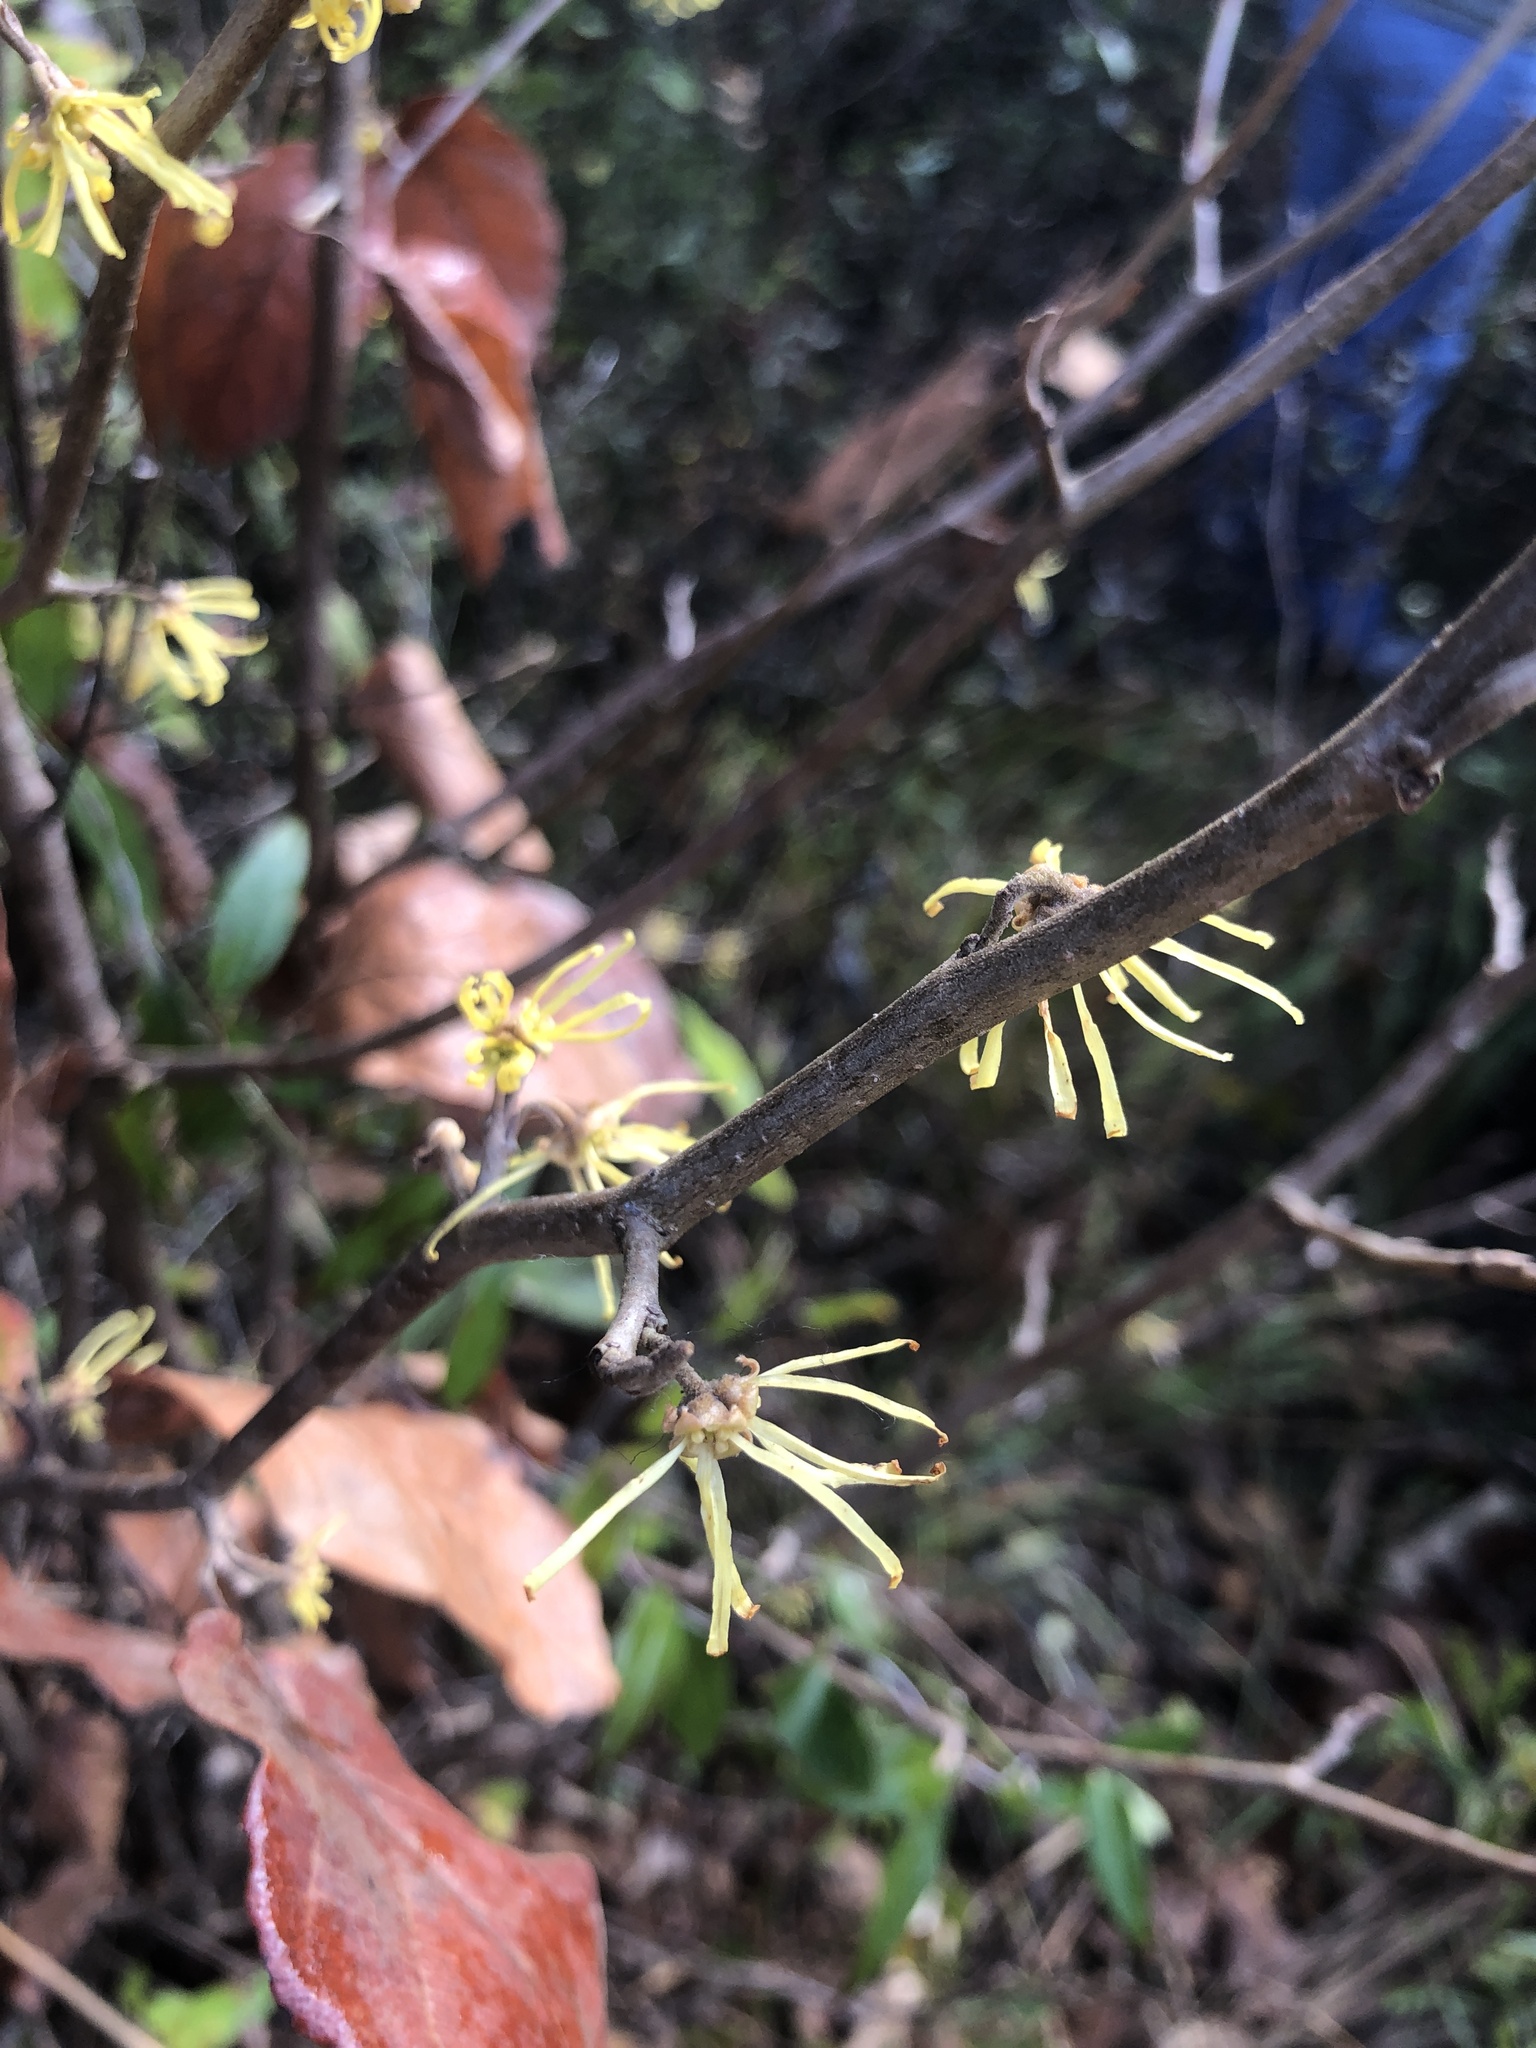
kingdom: Plantae
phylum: Tracheophyta
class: Magnoliopsida
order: Saxifragales
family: Hamamelidaceae
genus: Hamamelis
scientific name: Hamamelis virginiana
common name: Witch-hazel
